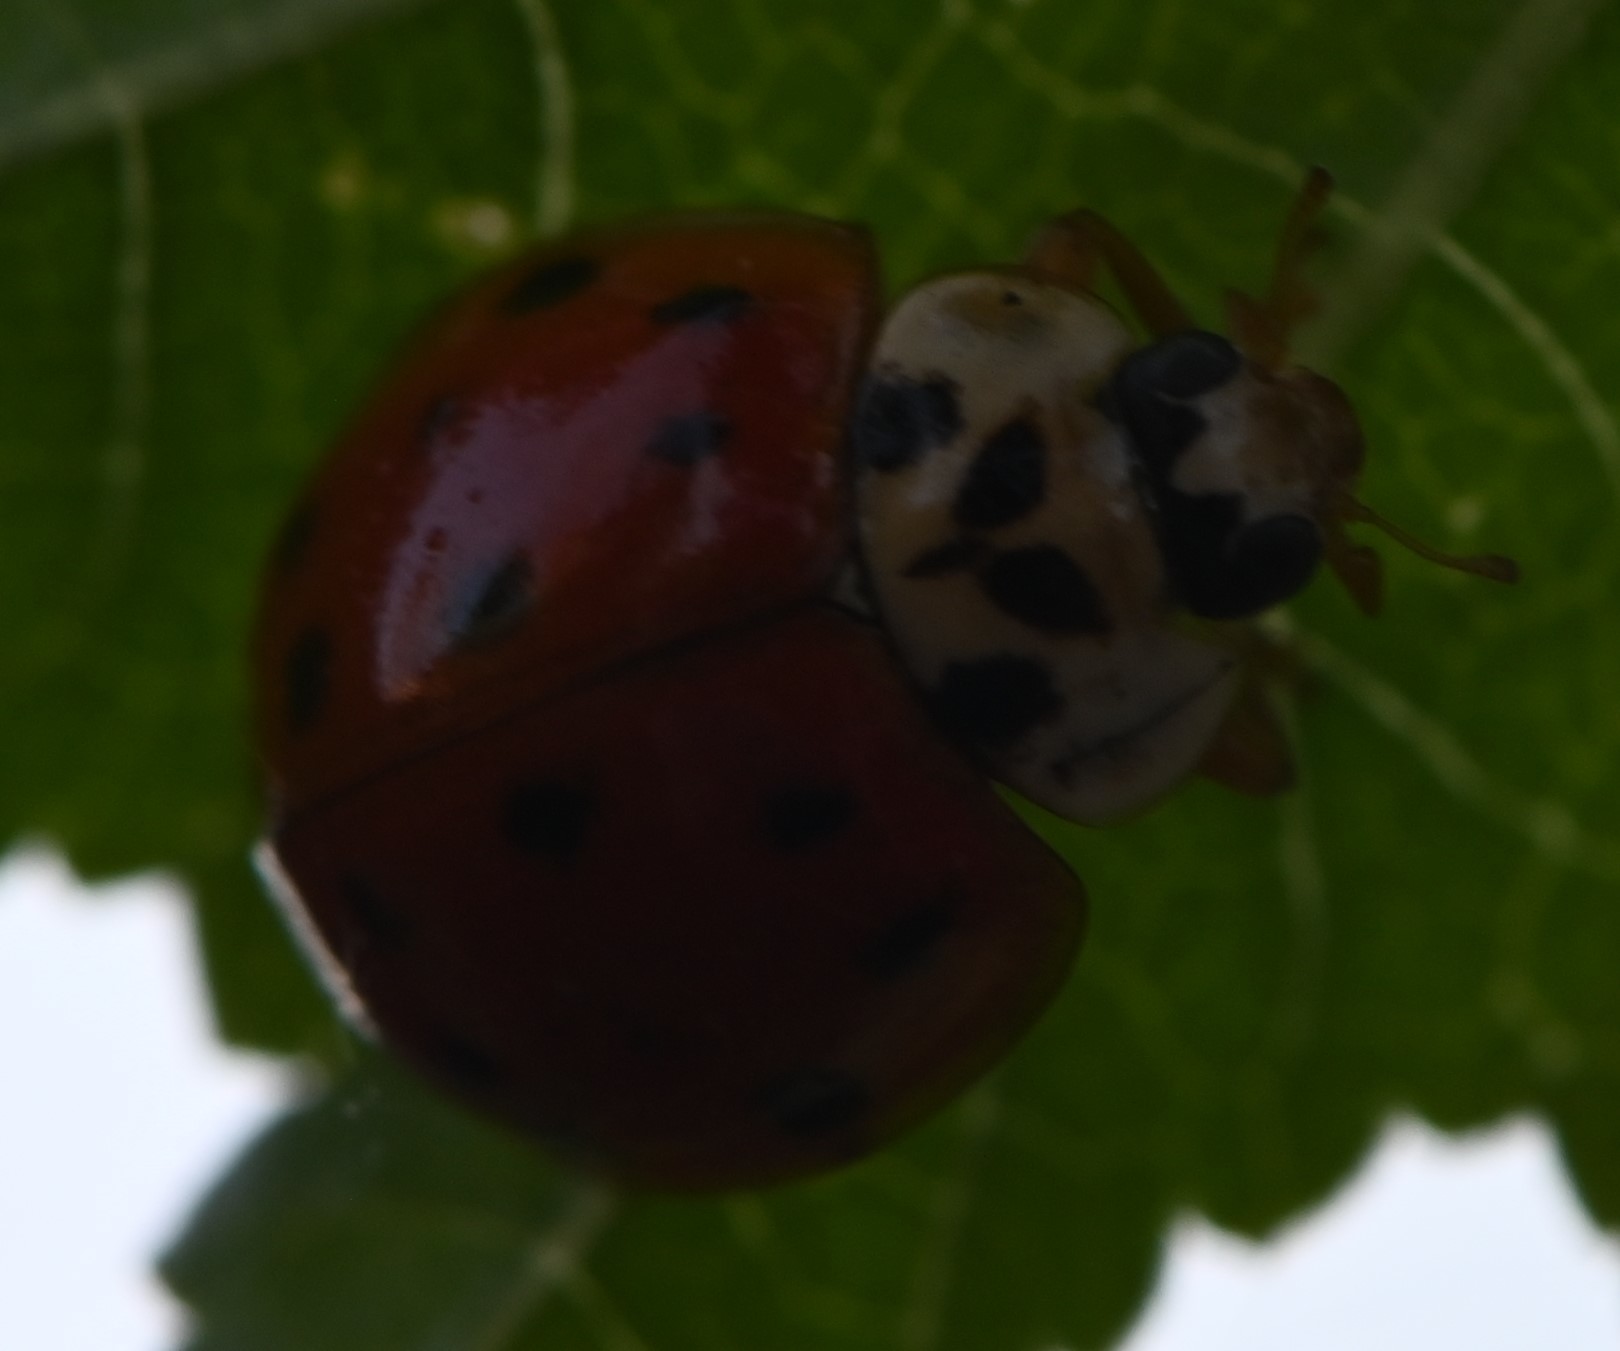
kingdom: Animalia
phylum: Arthropoda
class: Insecta
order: Coleoptera
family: Coccinellidae
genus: Harmonia
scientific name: Harmonia axyridis
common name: Harlequin ladybird
